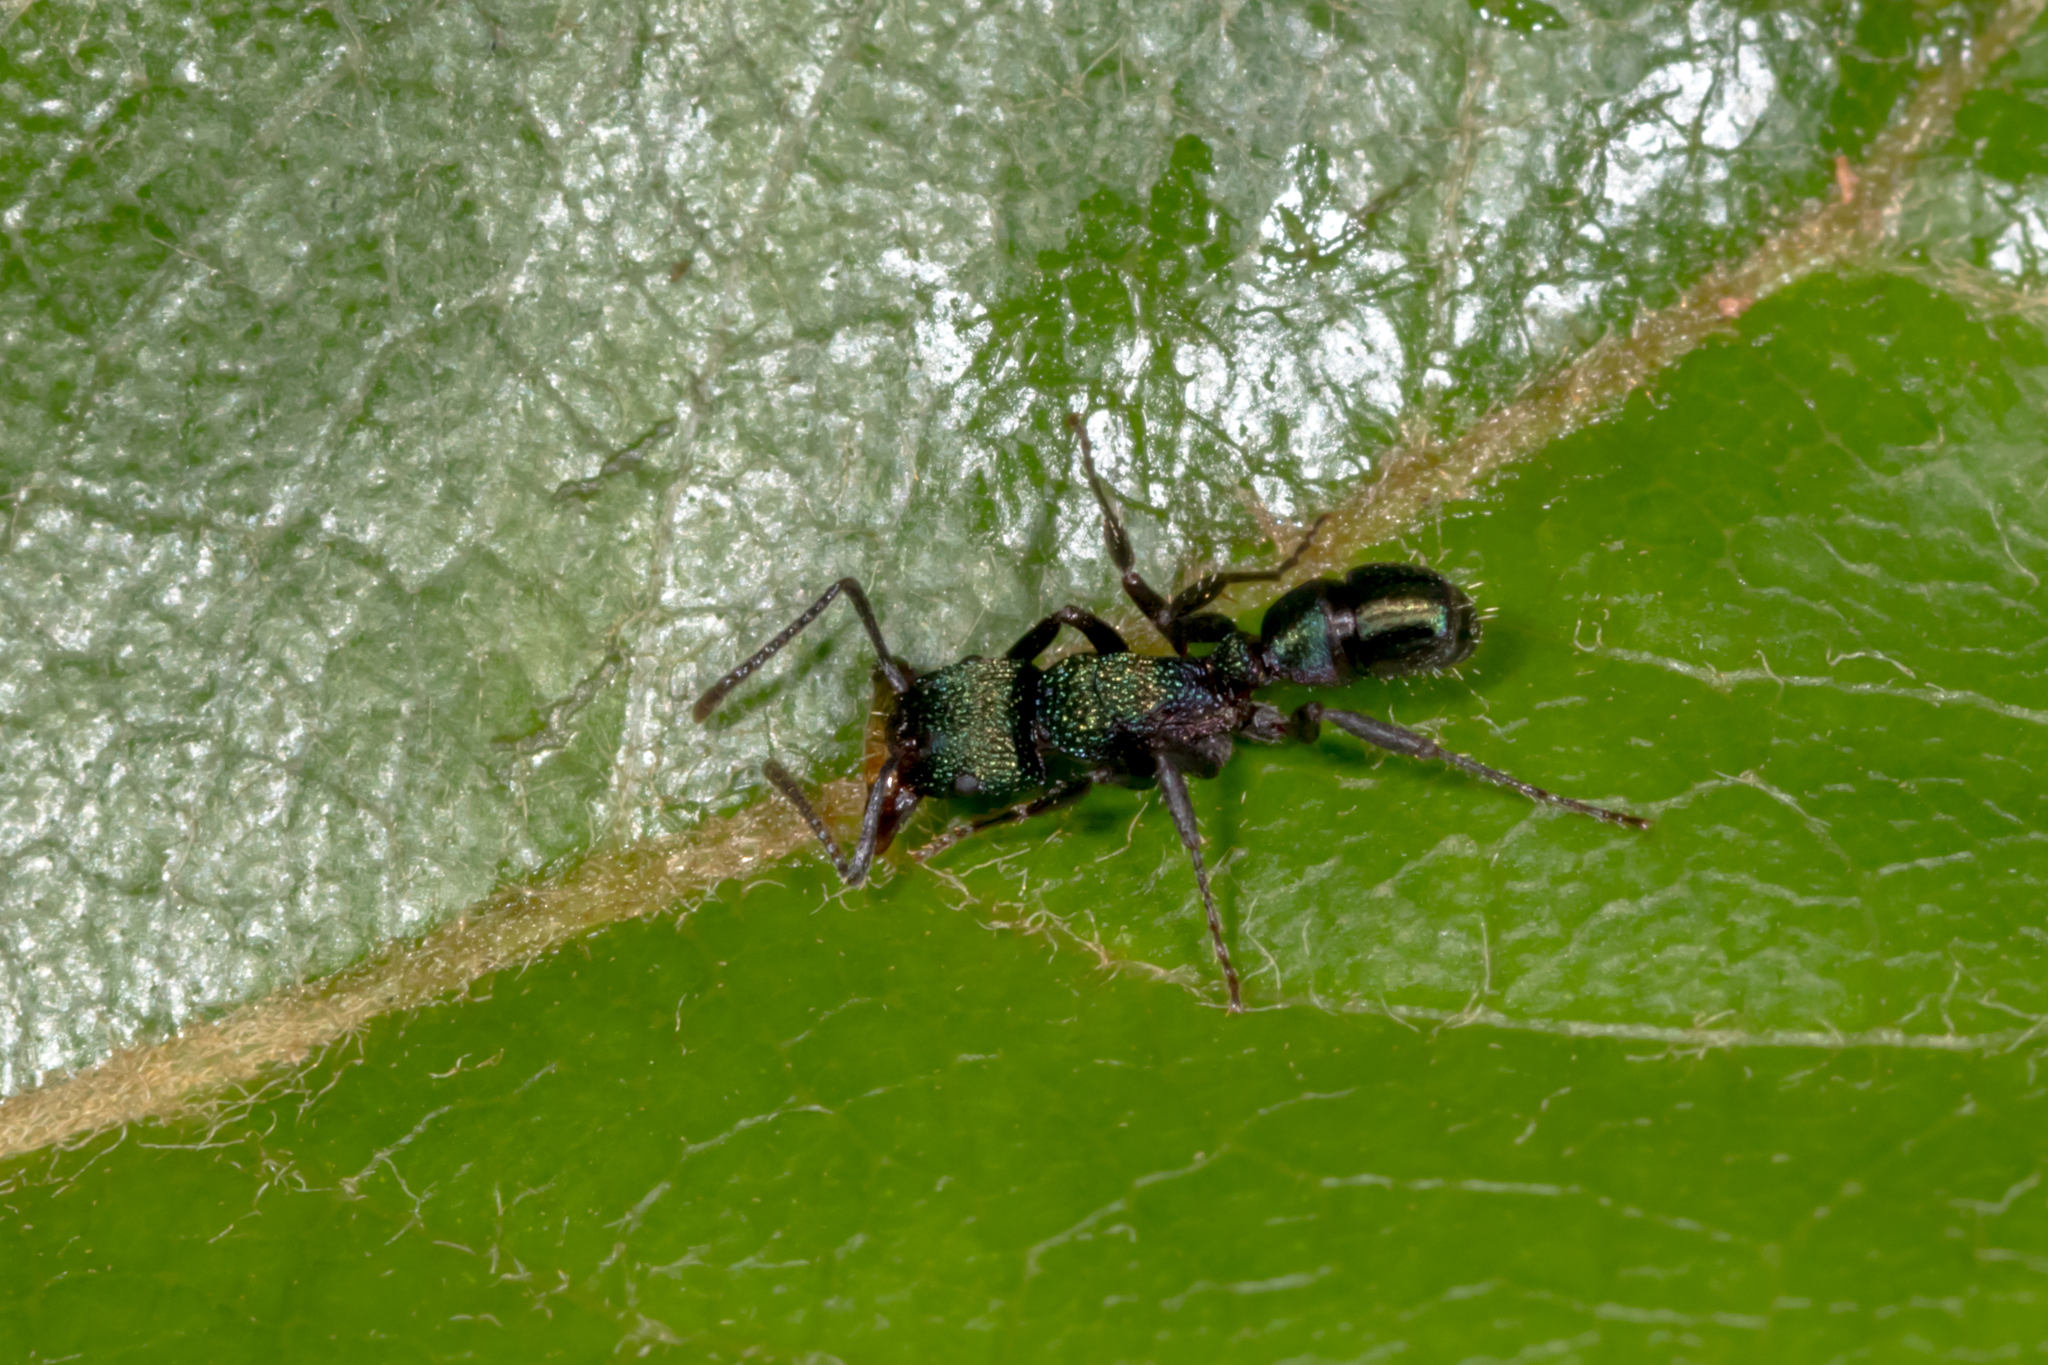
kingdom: Animalia
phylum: Arthropoda
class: Insecta
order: Hymenoptera
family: Formicidae
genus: Rhytidoponera
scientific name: Rhytidoponera metallica
